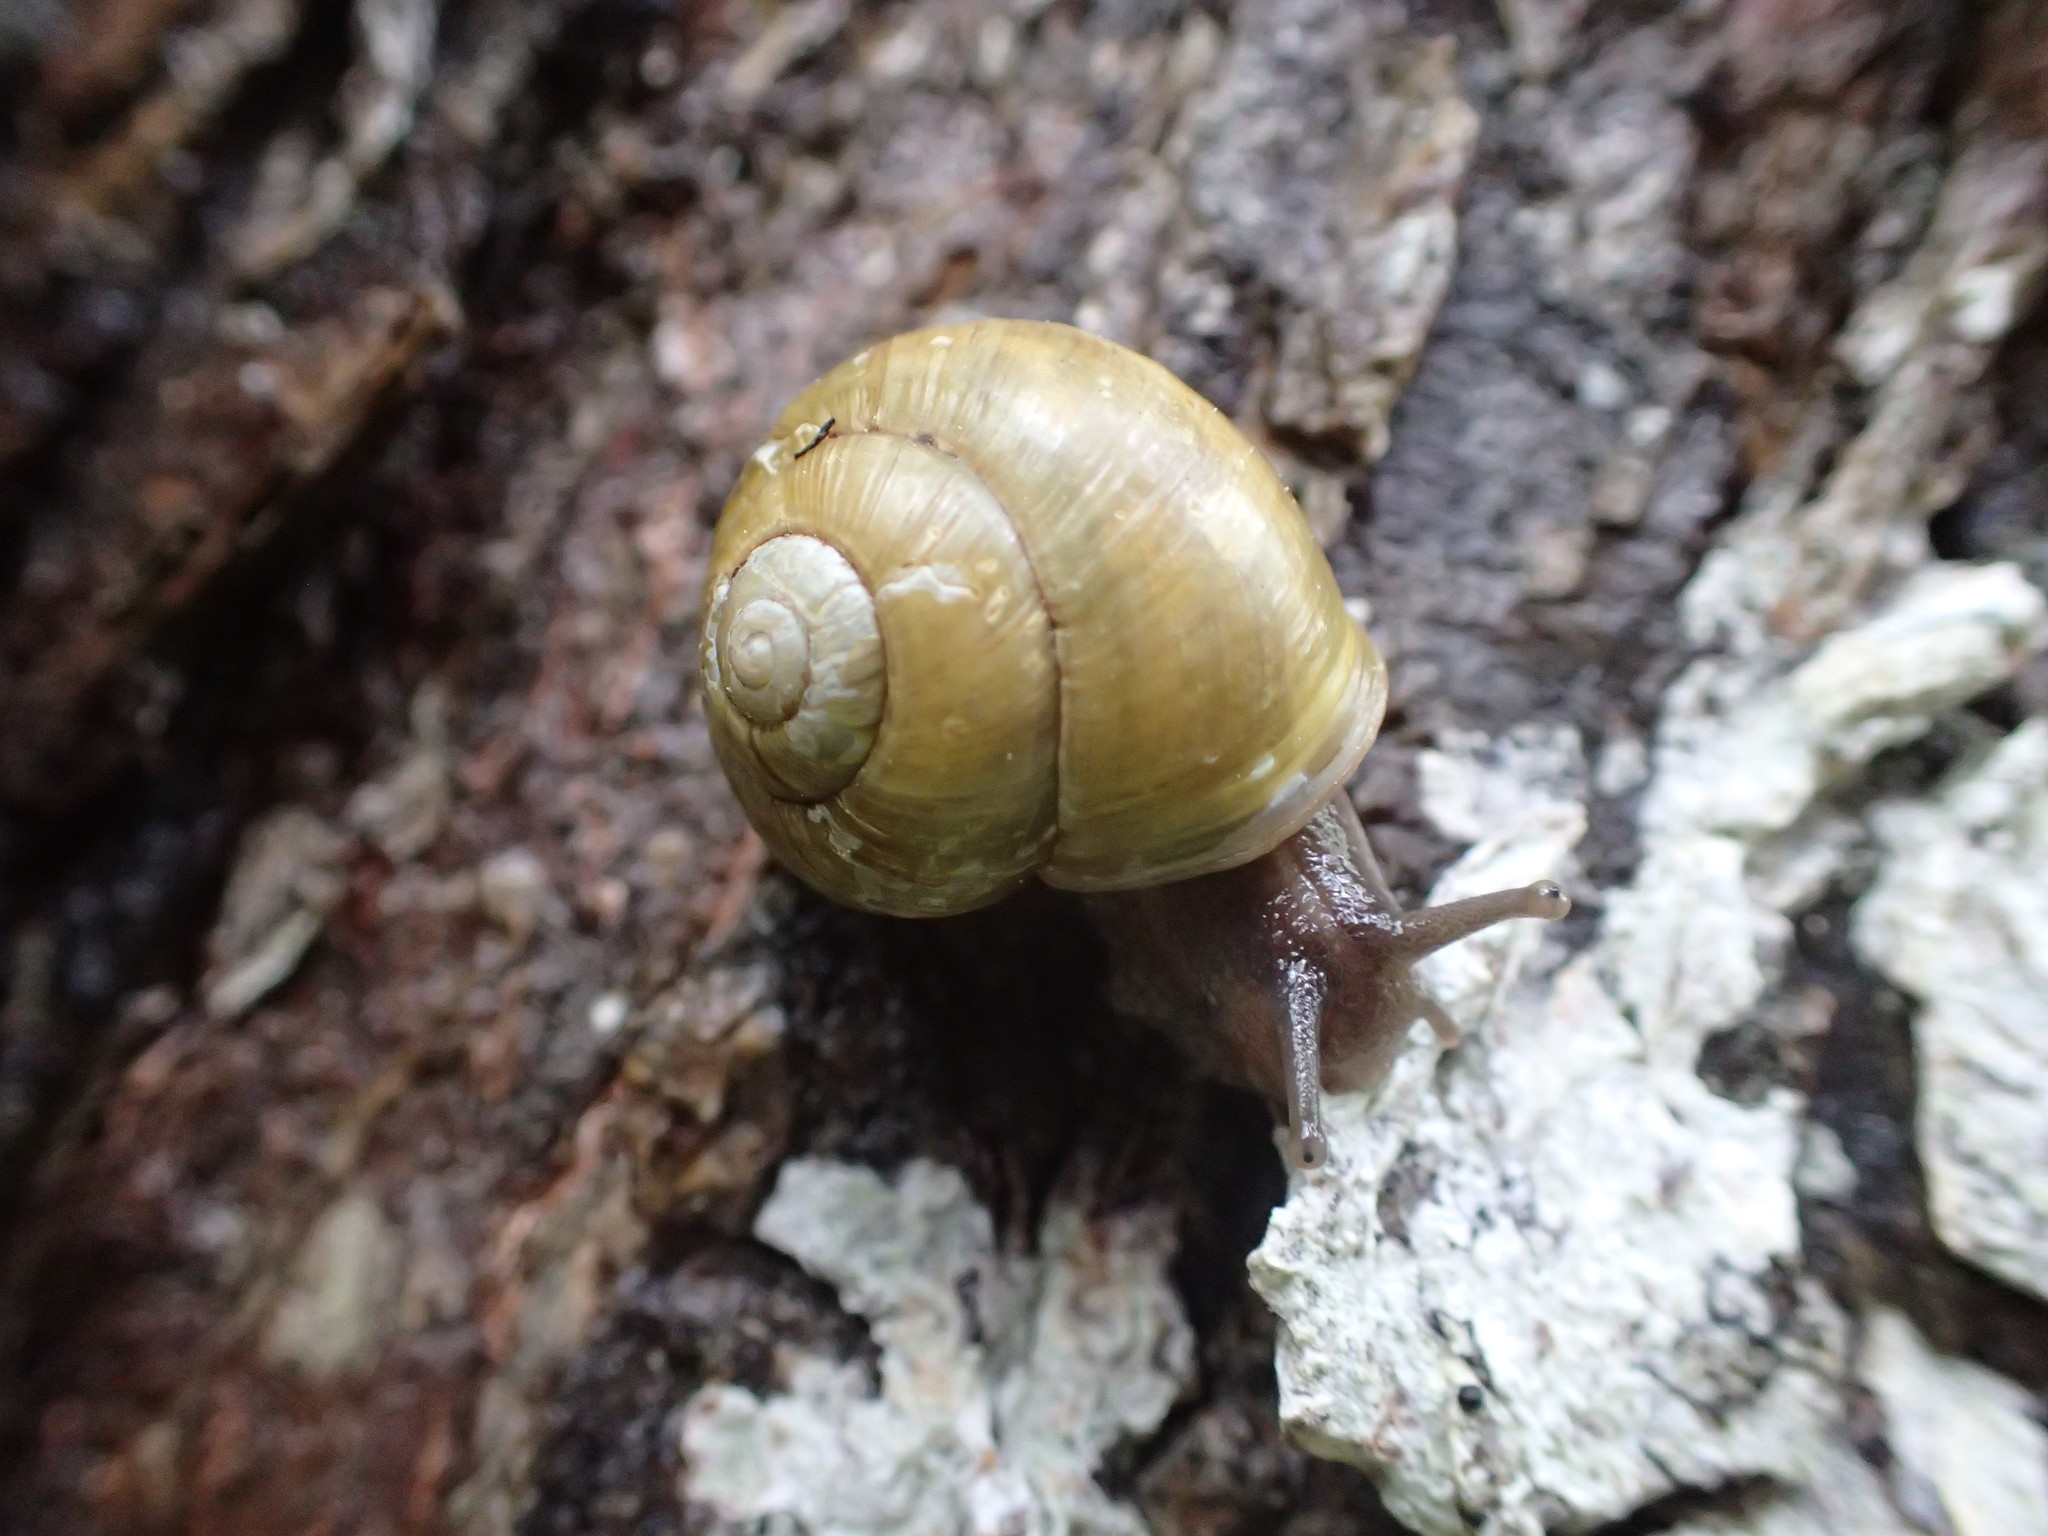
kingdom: Animalia
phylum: Mollusca
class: Gastropoda
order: Stylommatophora
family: Helicidae
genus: Cepaea
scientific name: Cepaea hortensis
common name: White-lip gardensnail
